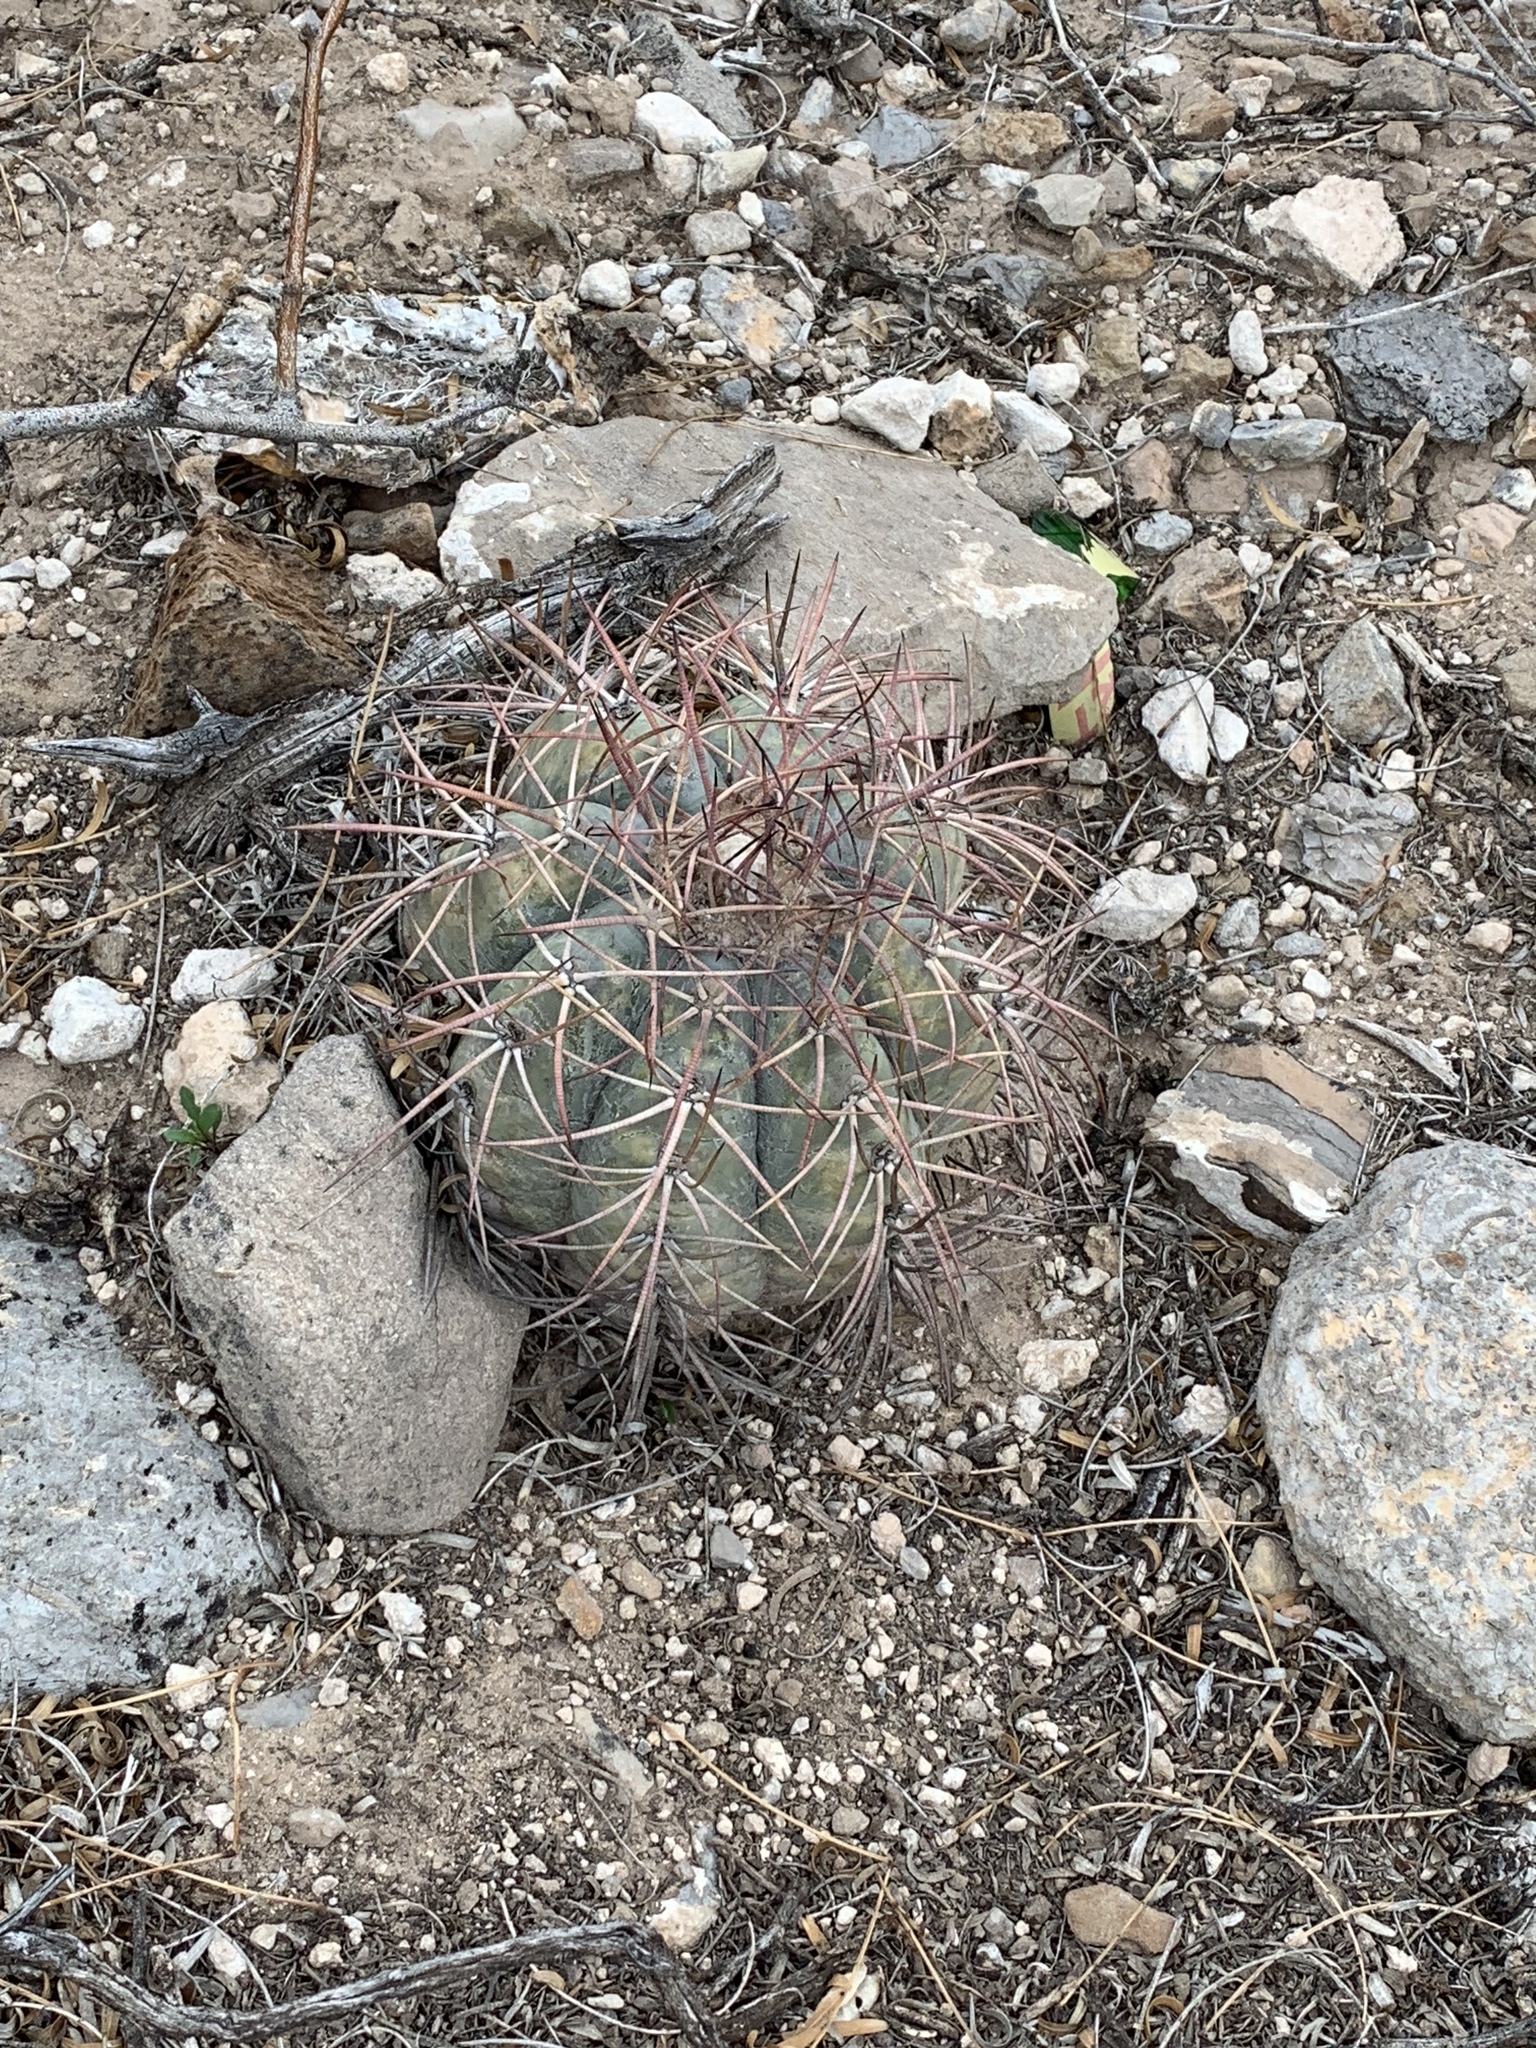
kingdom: Plantae
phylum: Tracheophyta
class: Magnoliopsida
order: Caryophyllales
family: Cactaceae
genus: Echinocactus
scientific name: Echinocactus horizonthalonius
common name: Devilshead
